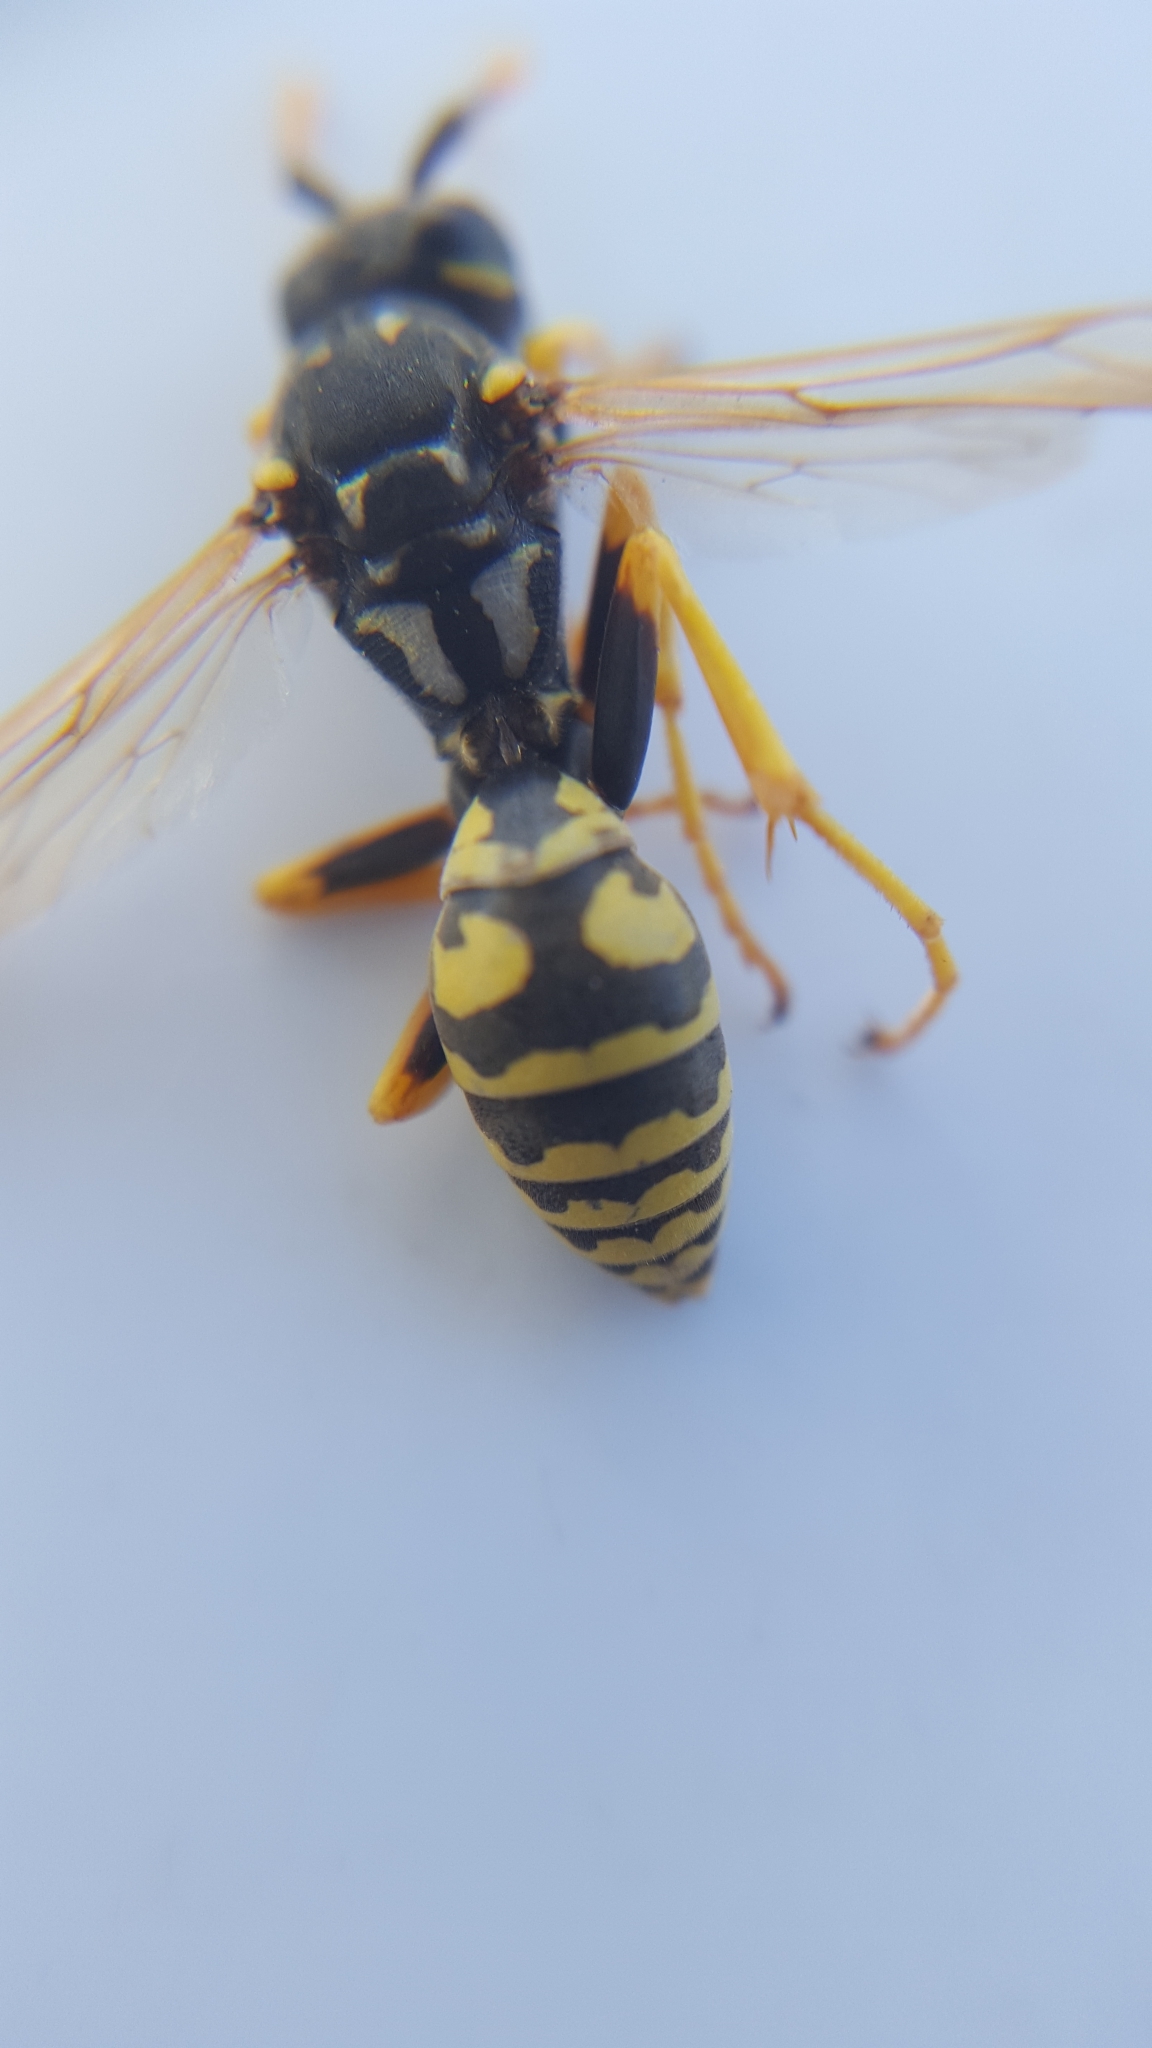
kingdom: Animalia
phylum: Arthropoda
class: Insecta
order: Hymenoptera
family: Eumenidae
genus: Polistes
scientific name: Polistes dominula
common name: Paper wasp
